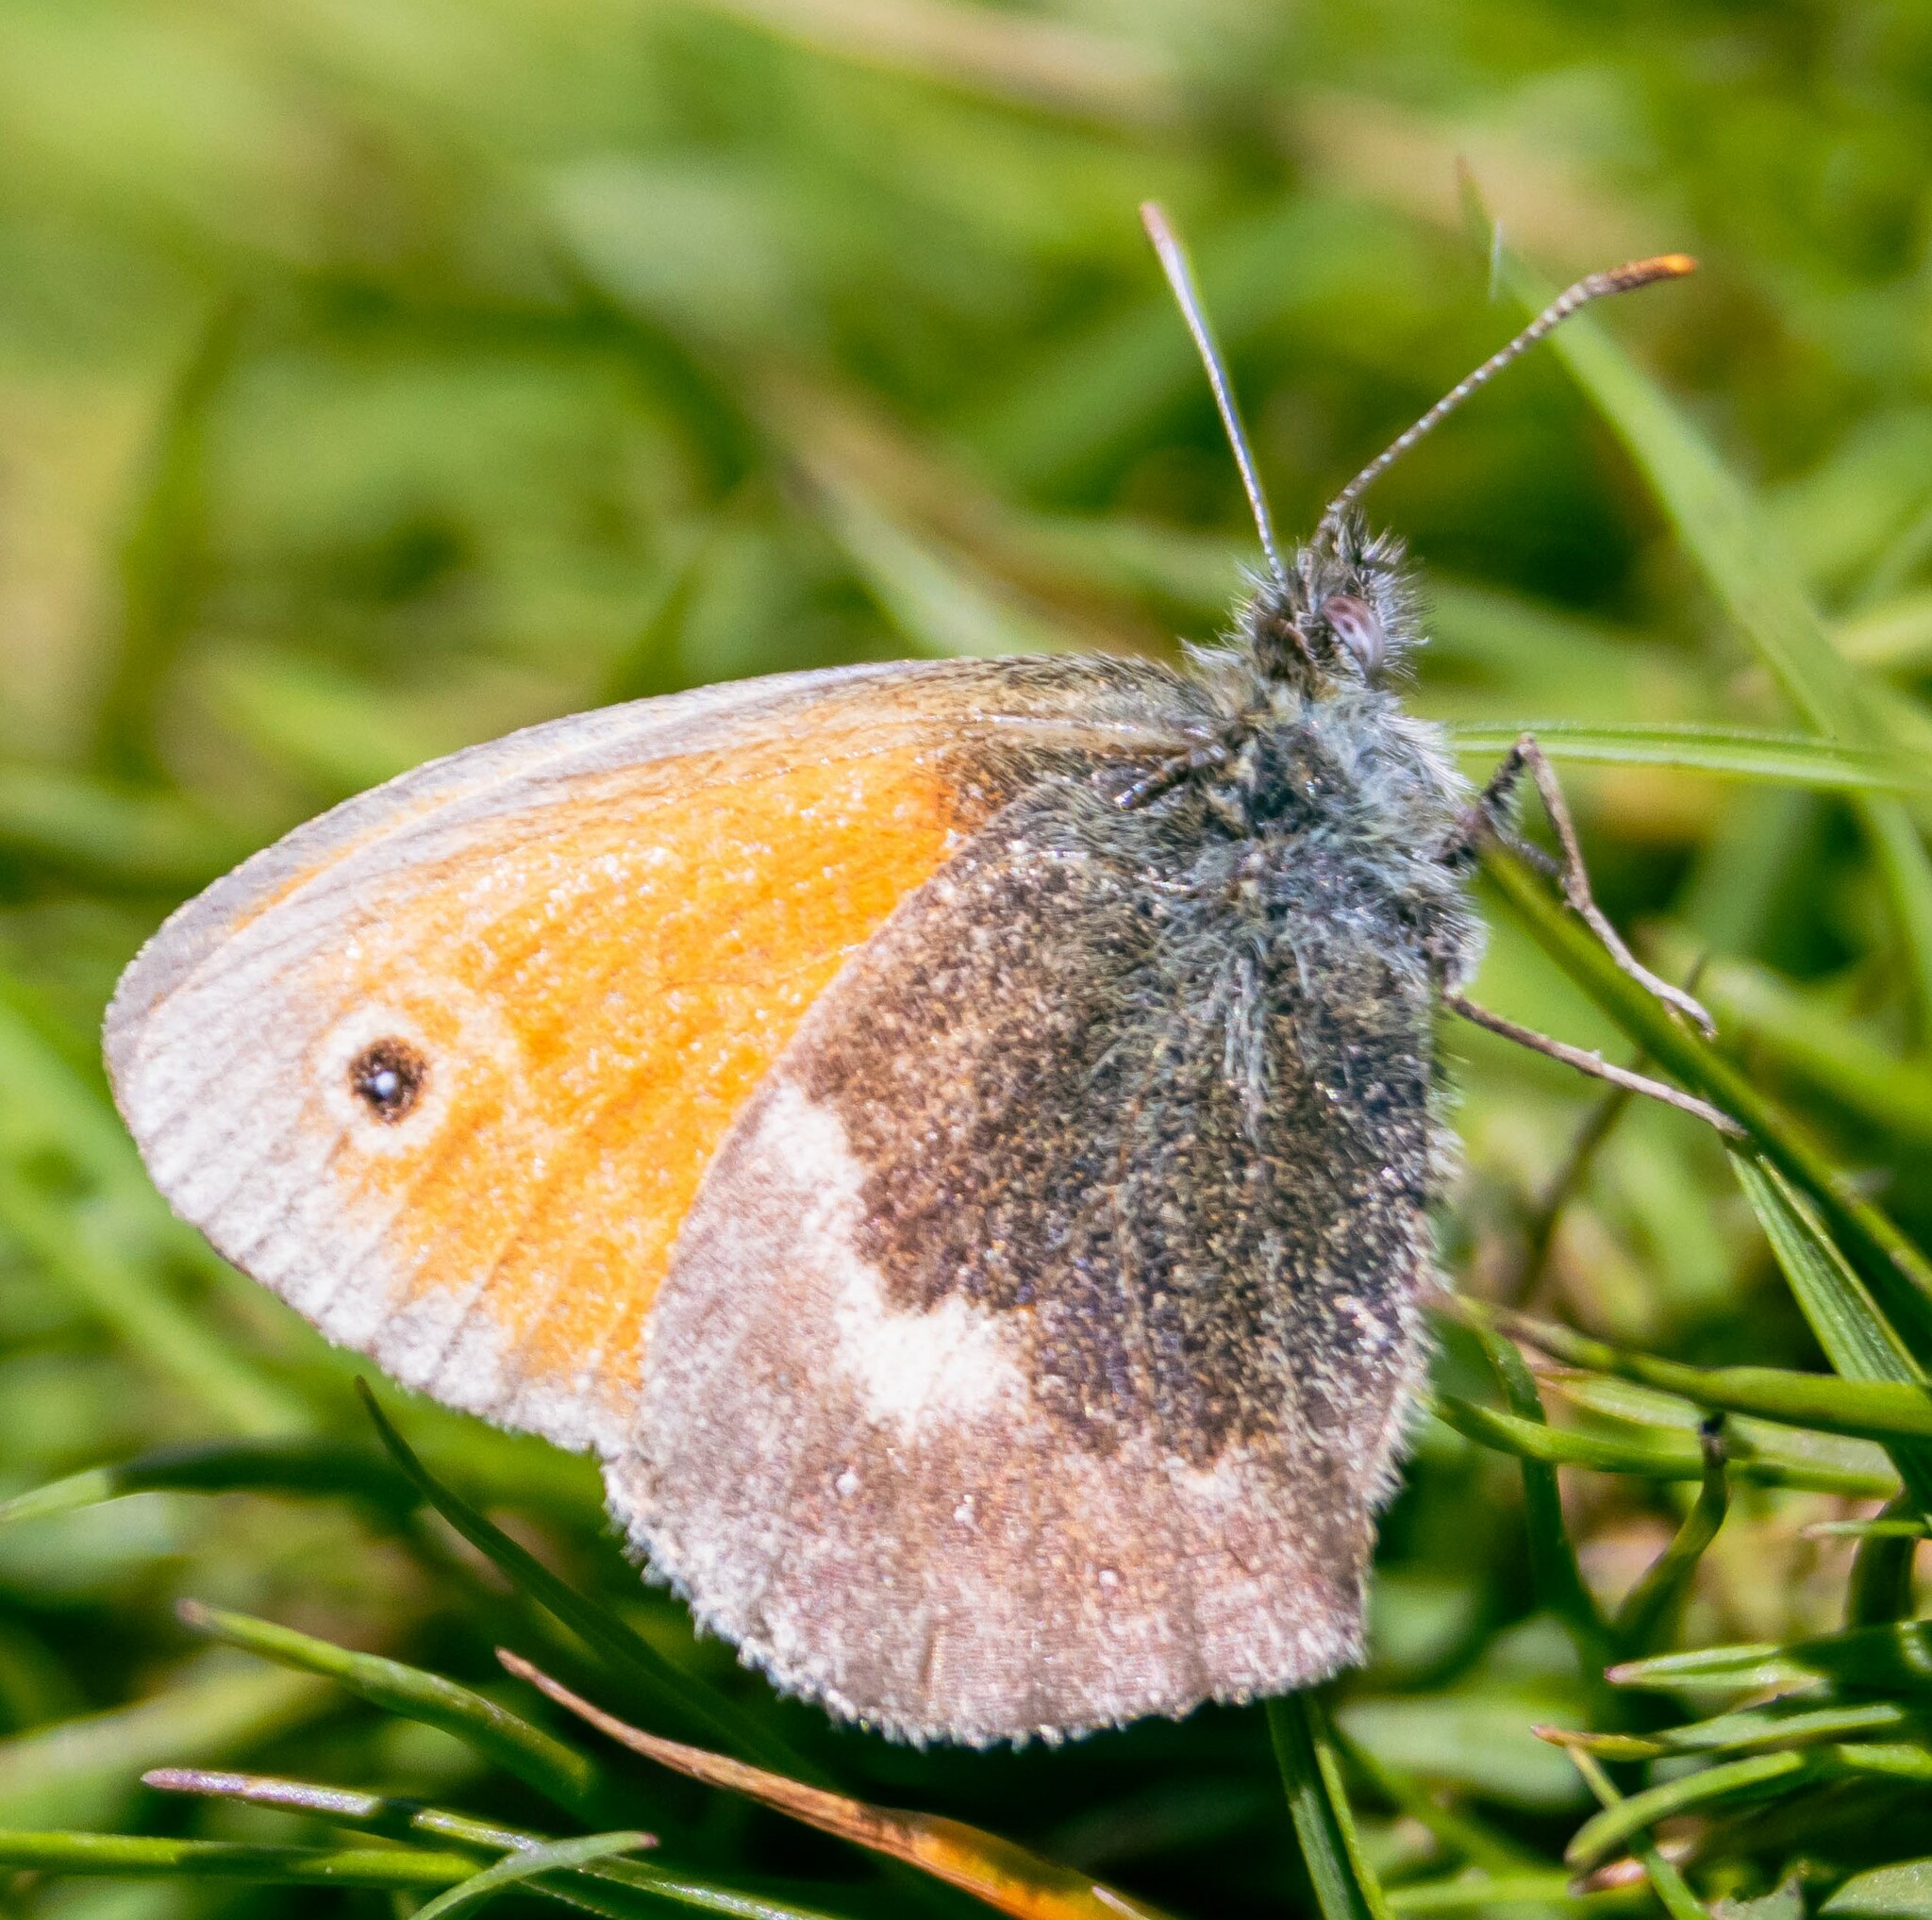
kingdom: Animalia
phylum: Arthropoda
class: Insecta
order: Lepidoptera
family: Nymphalidae
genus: Coenonympha
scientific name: Coenonympha pamphilus
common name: Small heath
